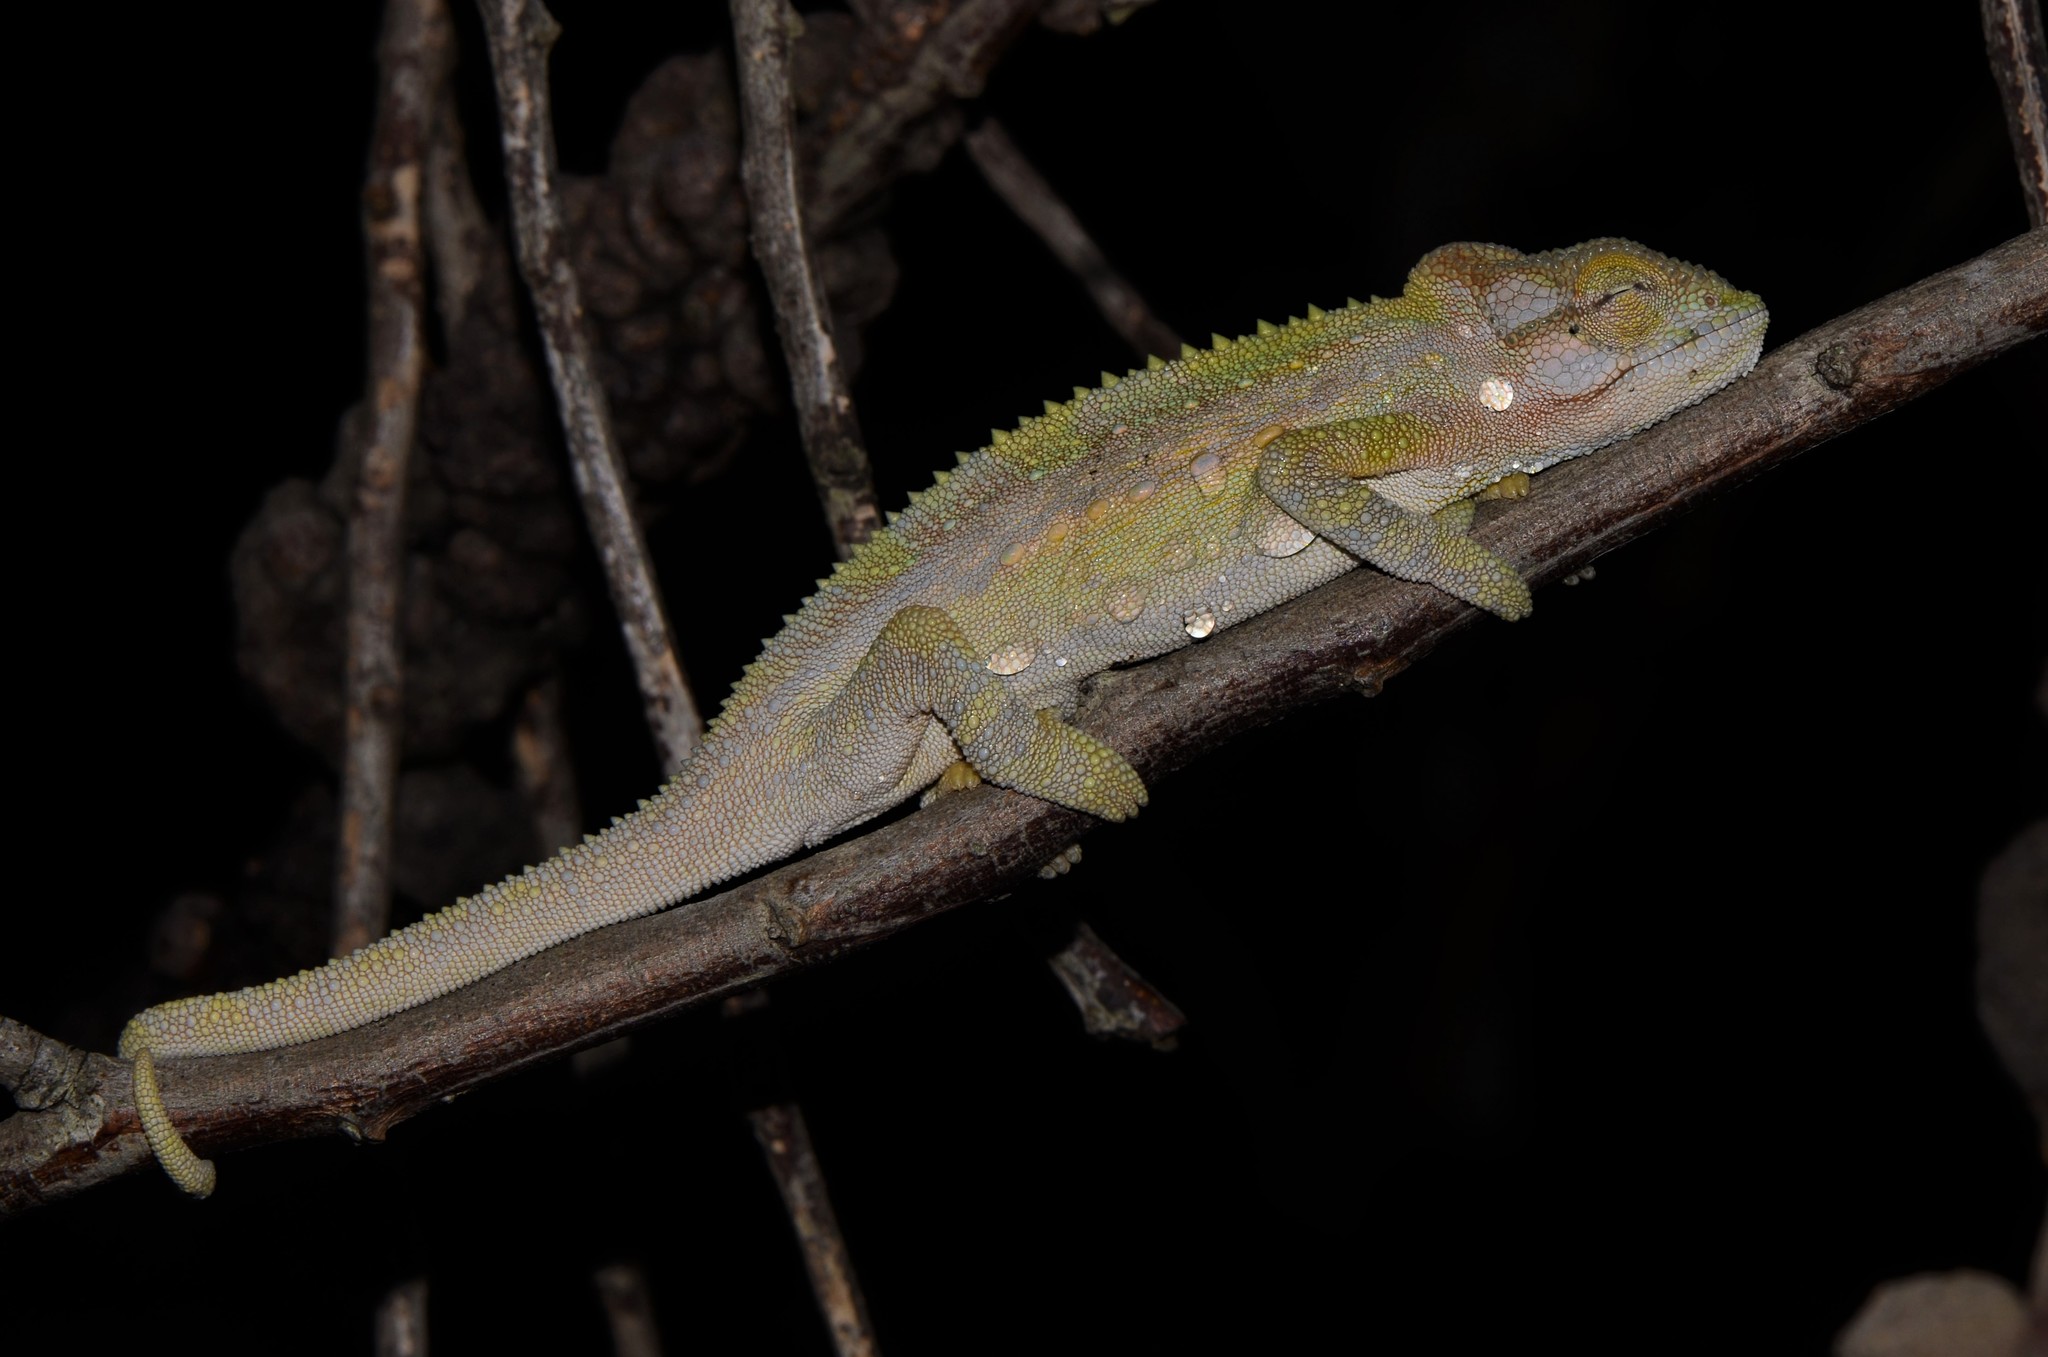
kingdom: Animalia
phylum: Chordata
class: Squamata
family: Chamaeleonidae
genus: Bradypodion
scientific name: Bradypodion pumilum
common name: Cape dwarf chameleon
